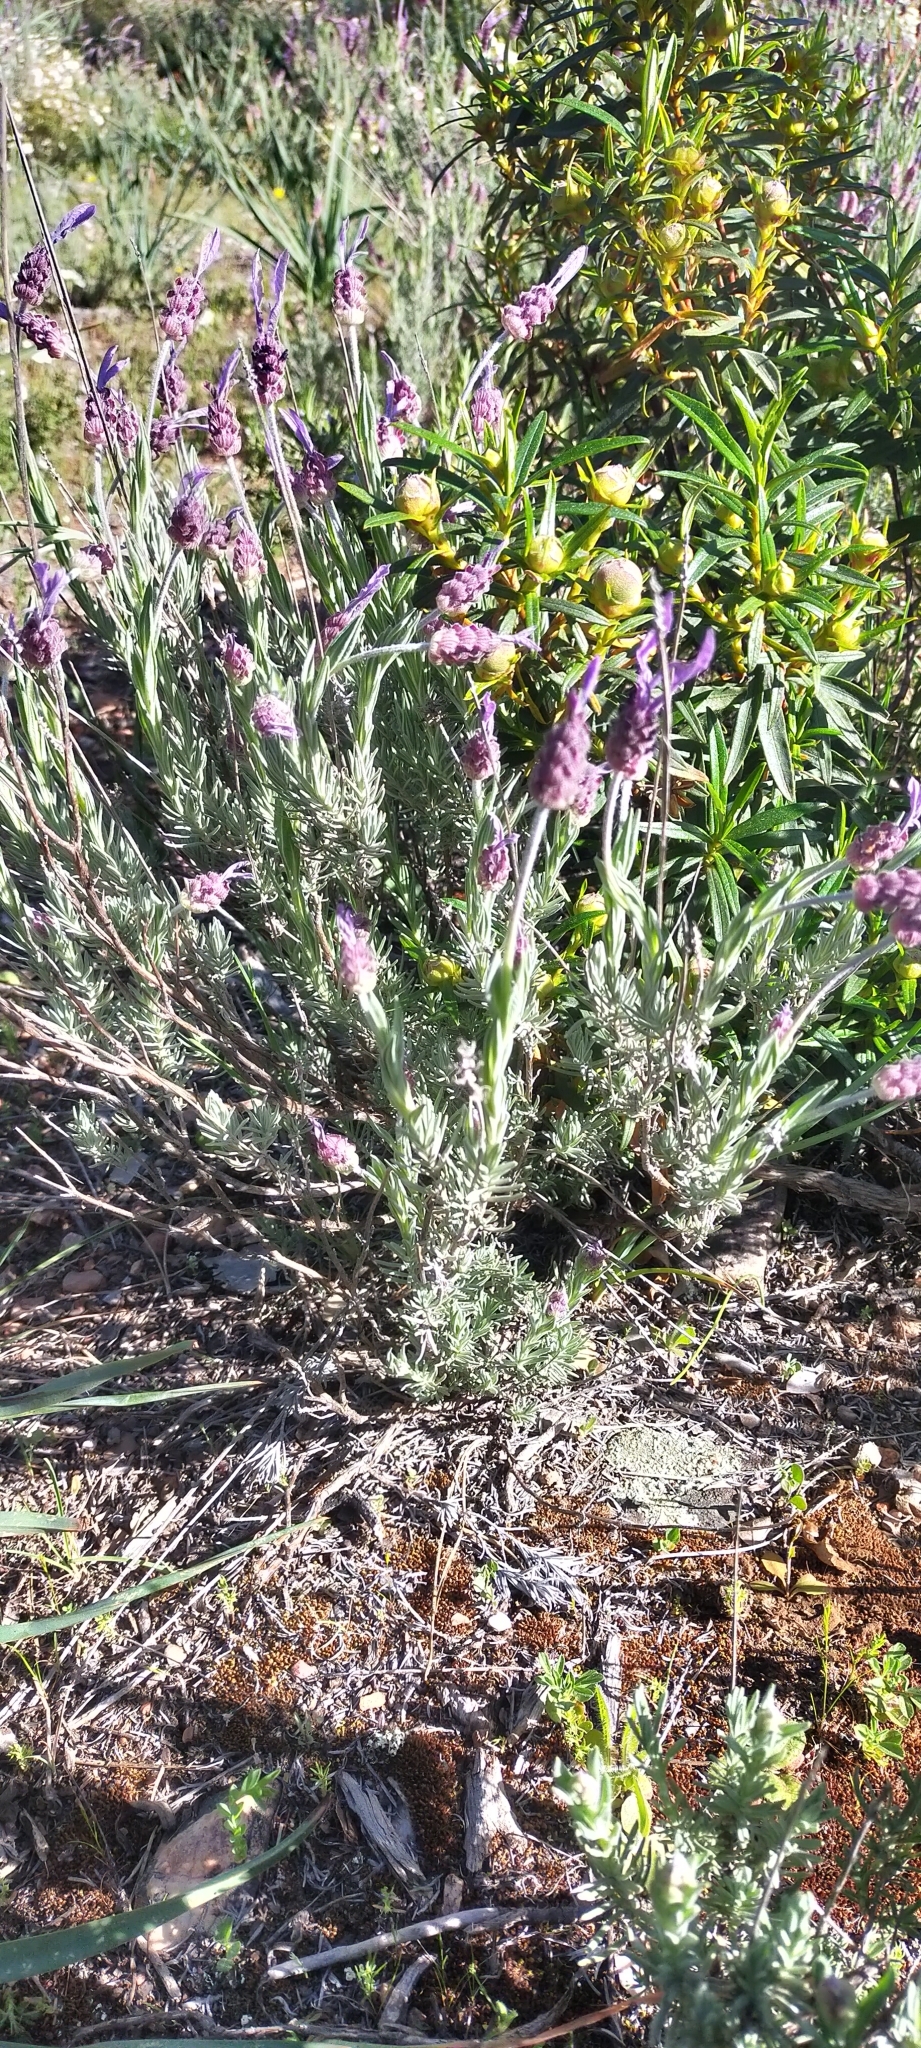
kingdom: Plantae
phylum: Tracheophyta
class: Magnoliopsida
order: Lamiales
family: Lamiaceae
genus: Lavandula
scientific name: Lavandula pedunculata
